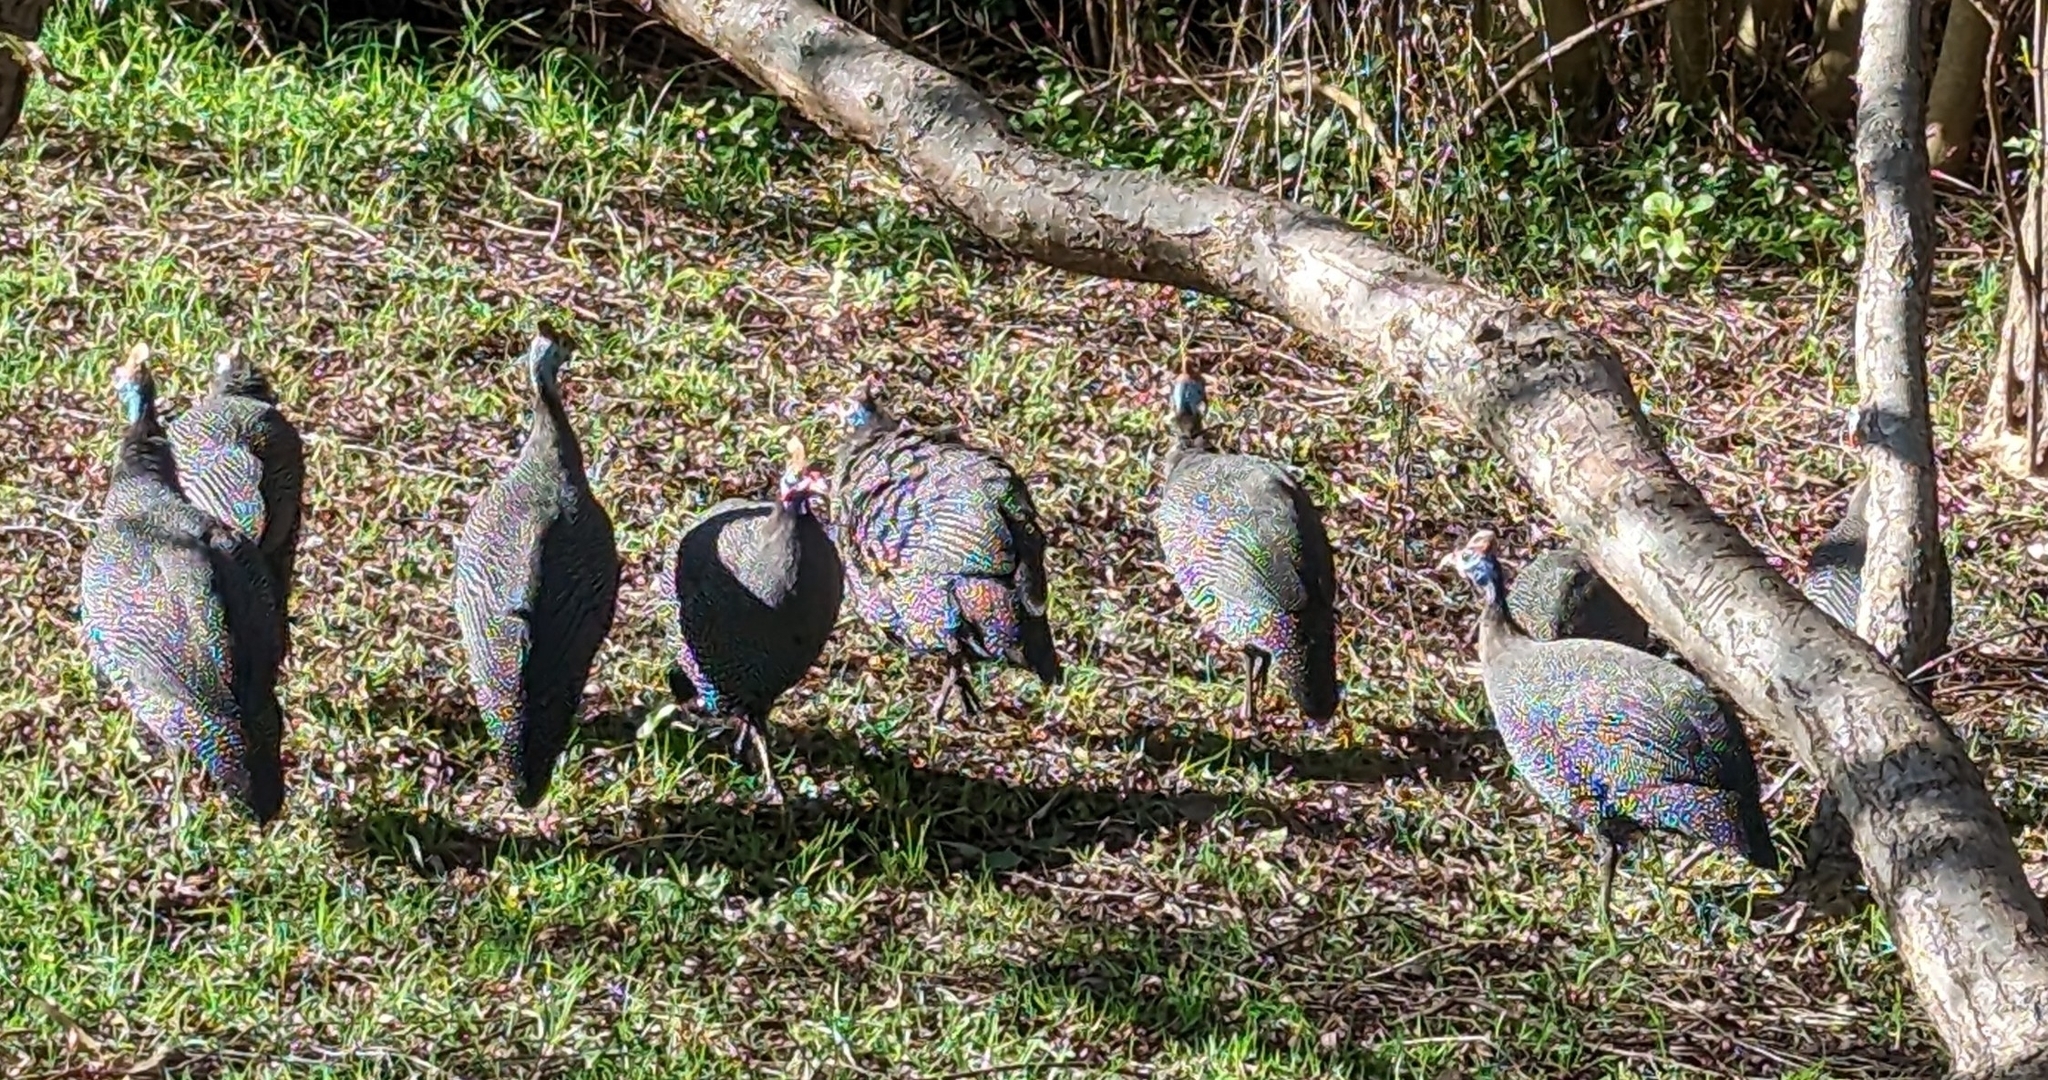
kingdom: Animalia
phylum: Chordata
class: Aves
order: Galliformes
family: Numididae
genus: Numida
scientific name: Numida meleagris
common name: Helmeted guineafowl
